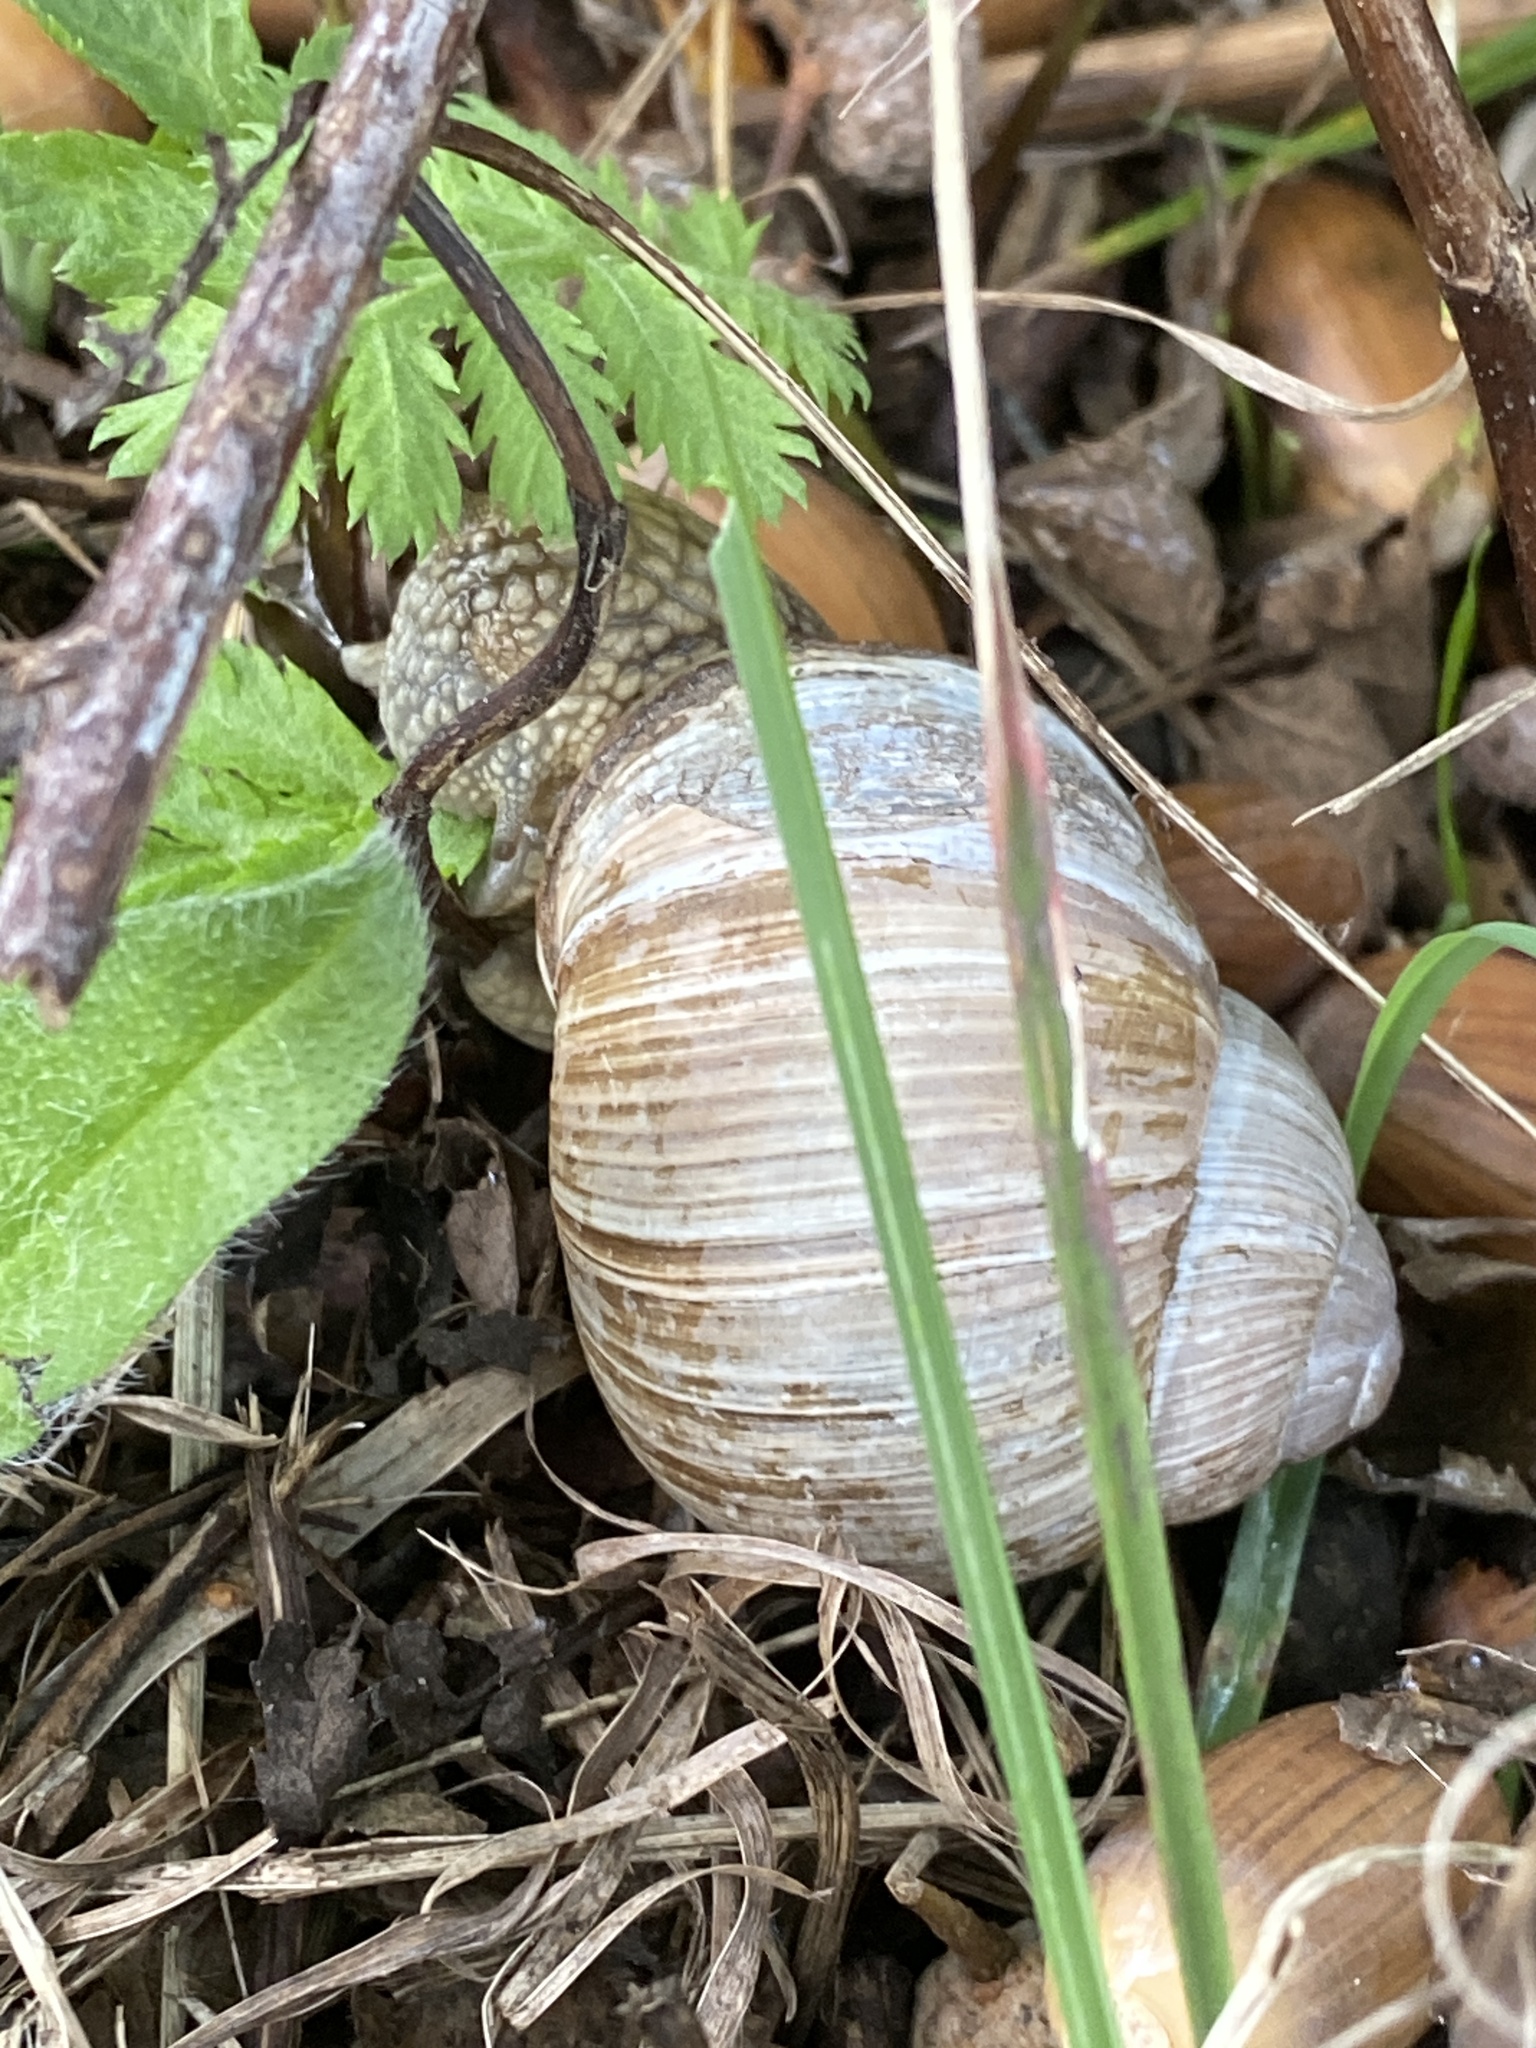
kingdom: Animalia
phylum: Mollusca
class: Gastropoda
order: Stylommatophora
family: Helicidae
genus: Helix
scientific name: Helix pomatia
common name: Roman snail
